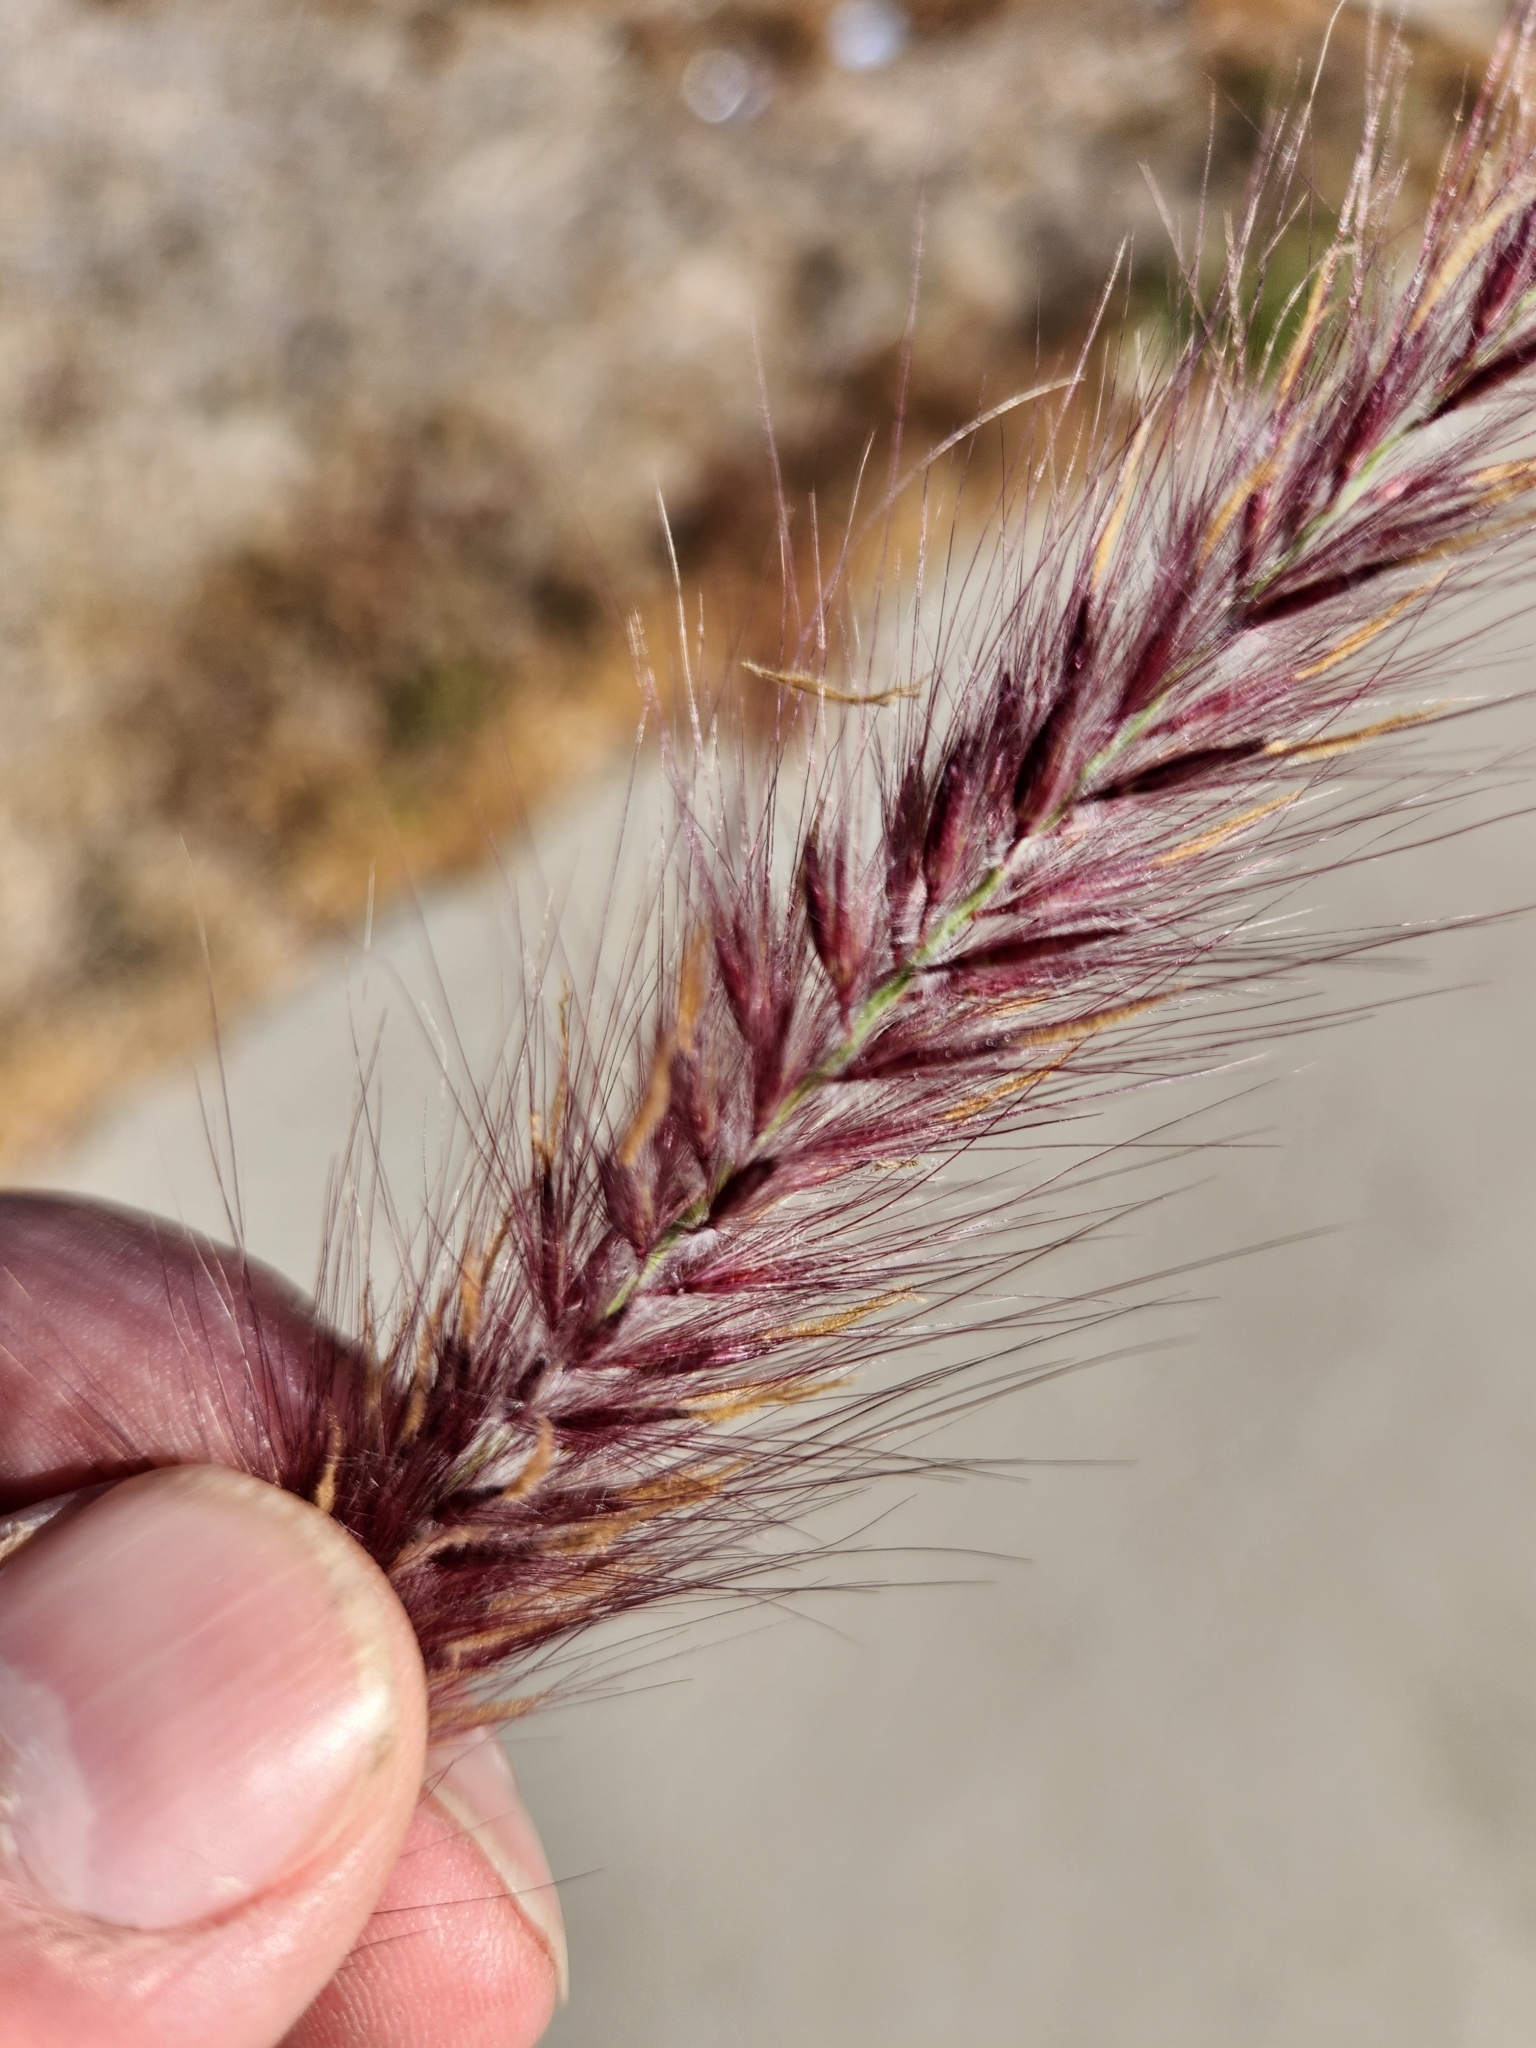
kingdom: Plantae
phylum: Tracheophyta
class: Liliopsida
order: Poales
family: Poaceae
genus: Cenchrus
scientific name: Cenchrus setaceus
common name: Crimson fountaingrass
